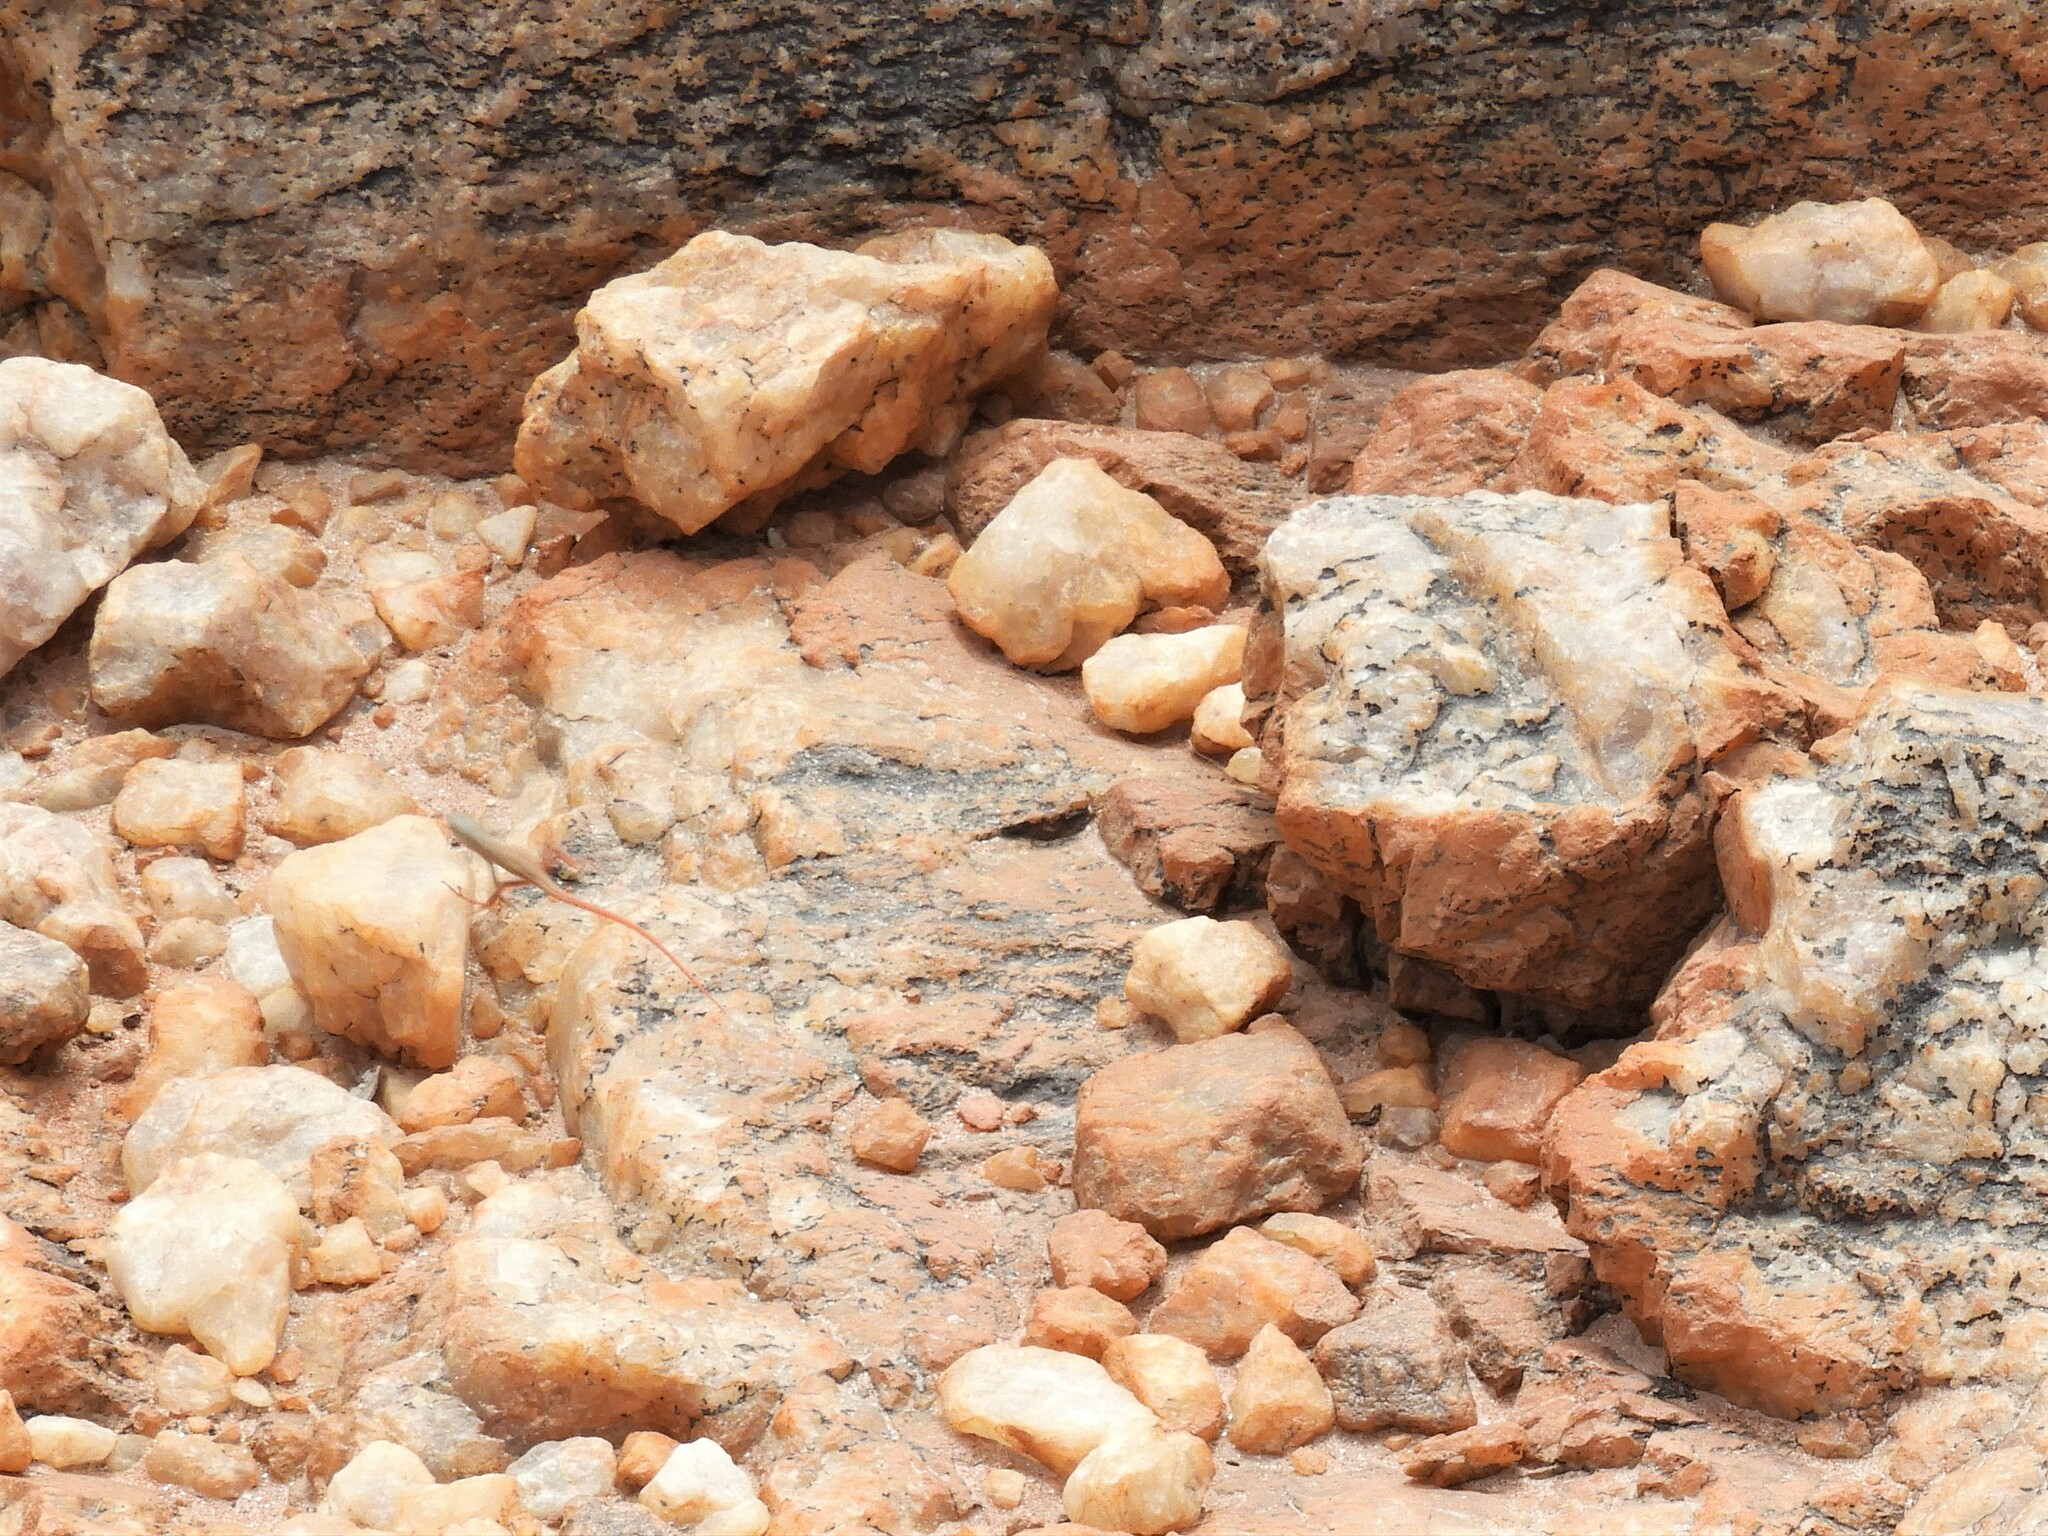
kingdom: Animalia
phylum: Chordata
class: Squamata
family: Lacertidae
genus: Pedioplanis
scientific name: Pedioplanis inornata
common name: Plain sand lizard
